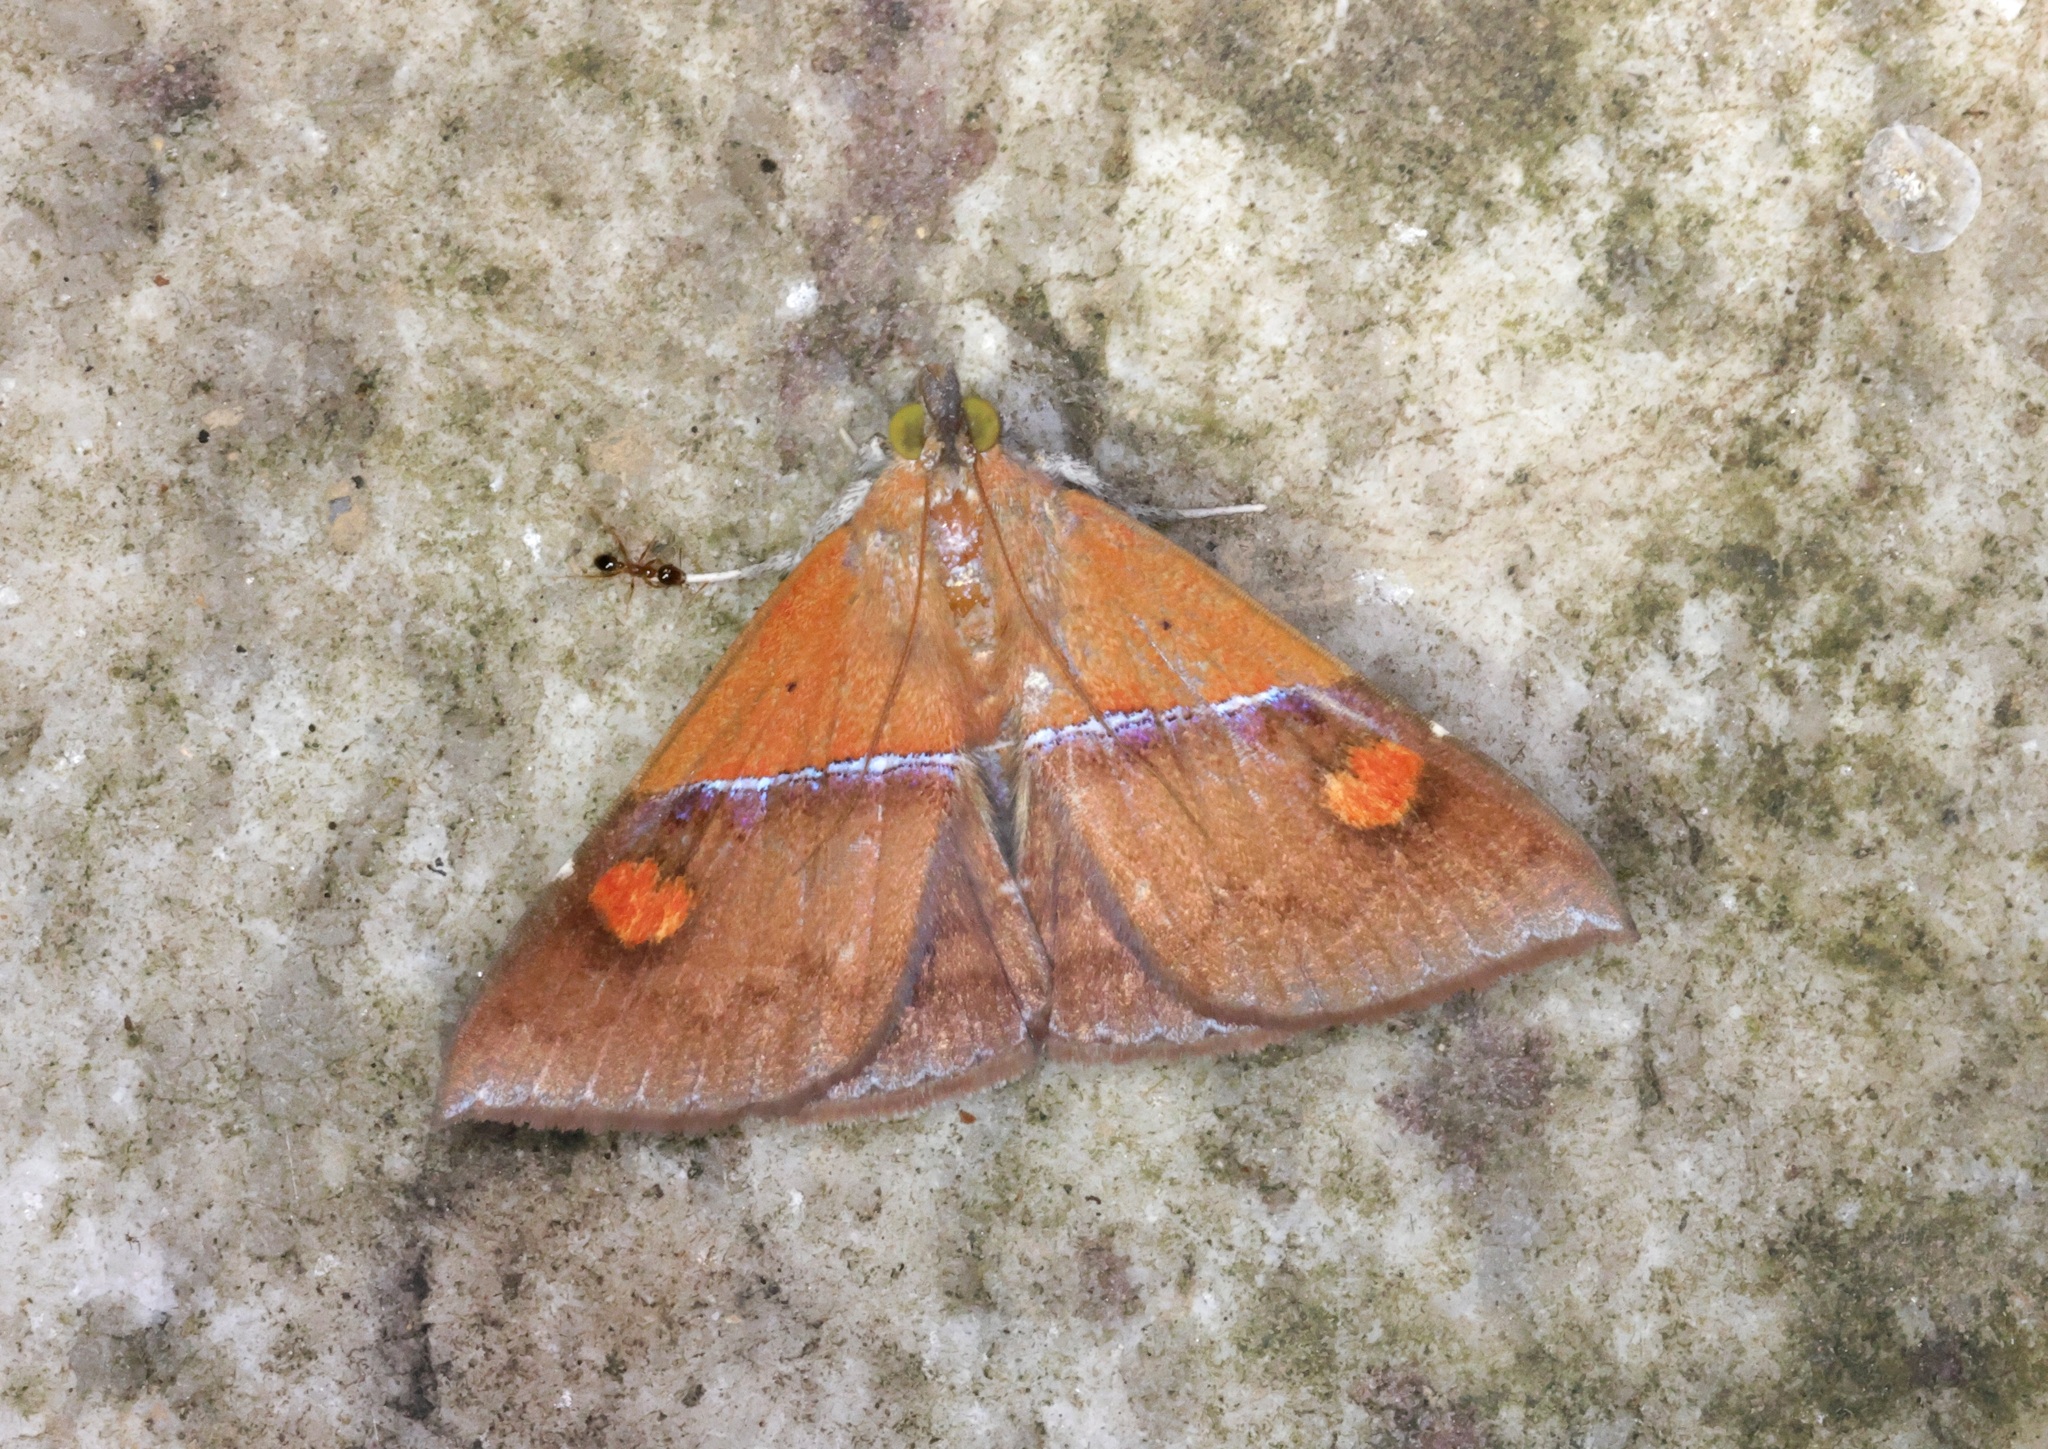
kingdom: Animalia
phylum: Arthropoda
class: Insecta
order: Lepidoptera
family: Erebidae
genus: Sympis
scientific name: Sympis rufibasis
